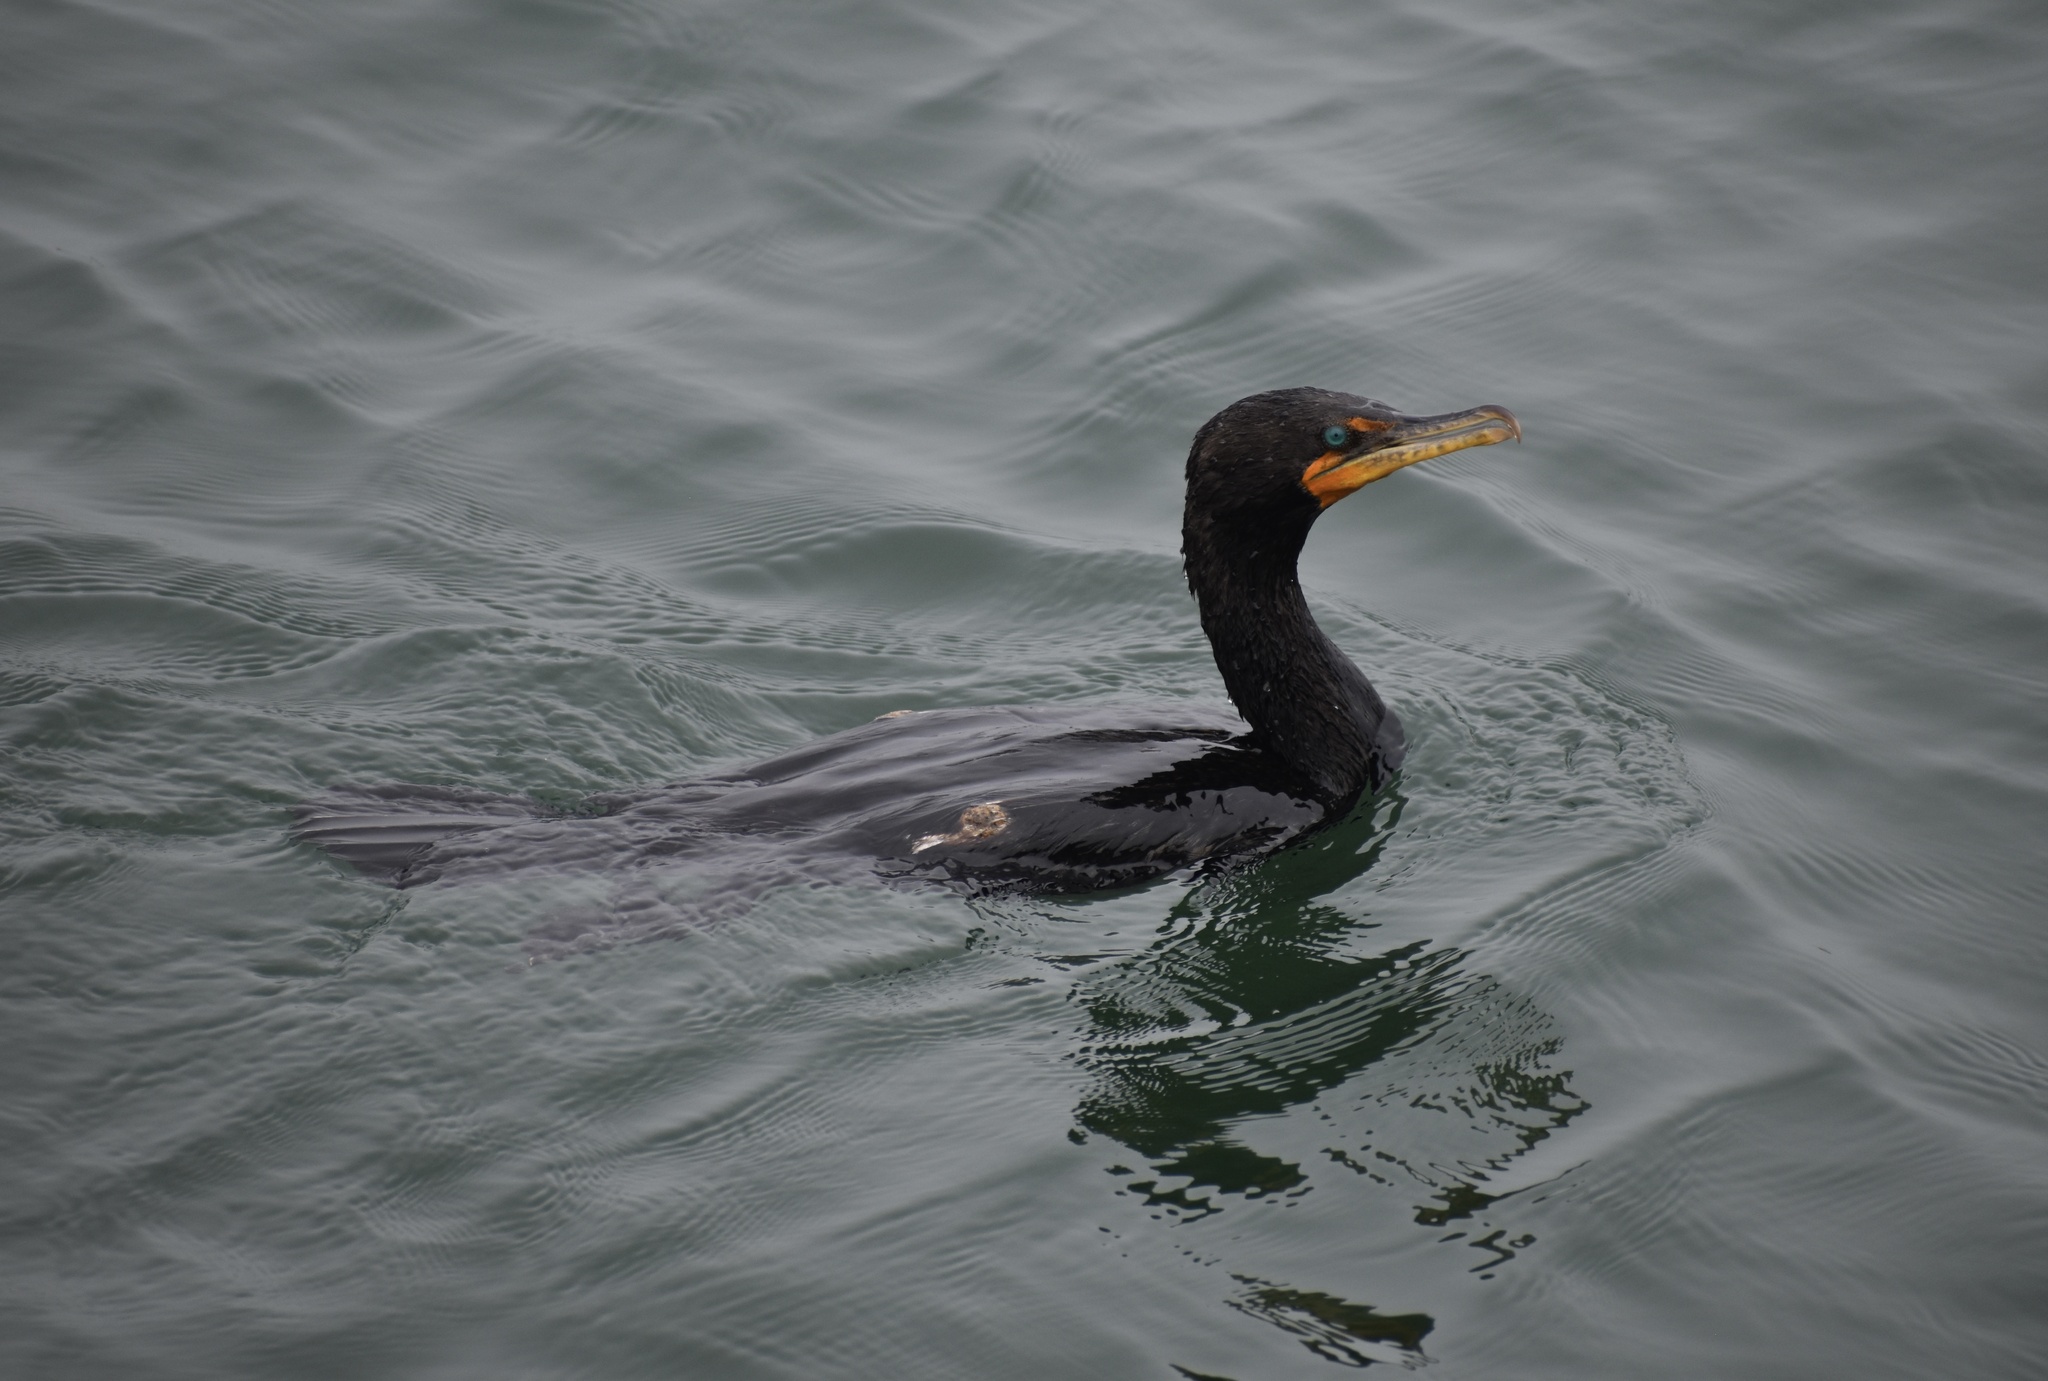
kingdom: Animalia
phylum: Chordata
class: Aves
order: Suliformes
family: Phalacrocoracidae
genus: Phalacrocorax
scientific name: Phalacrocorax auritus
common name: Double-crested cormorant
